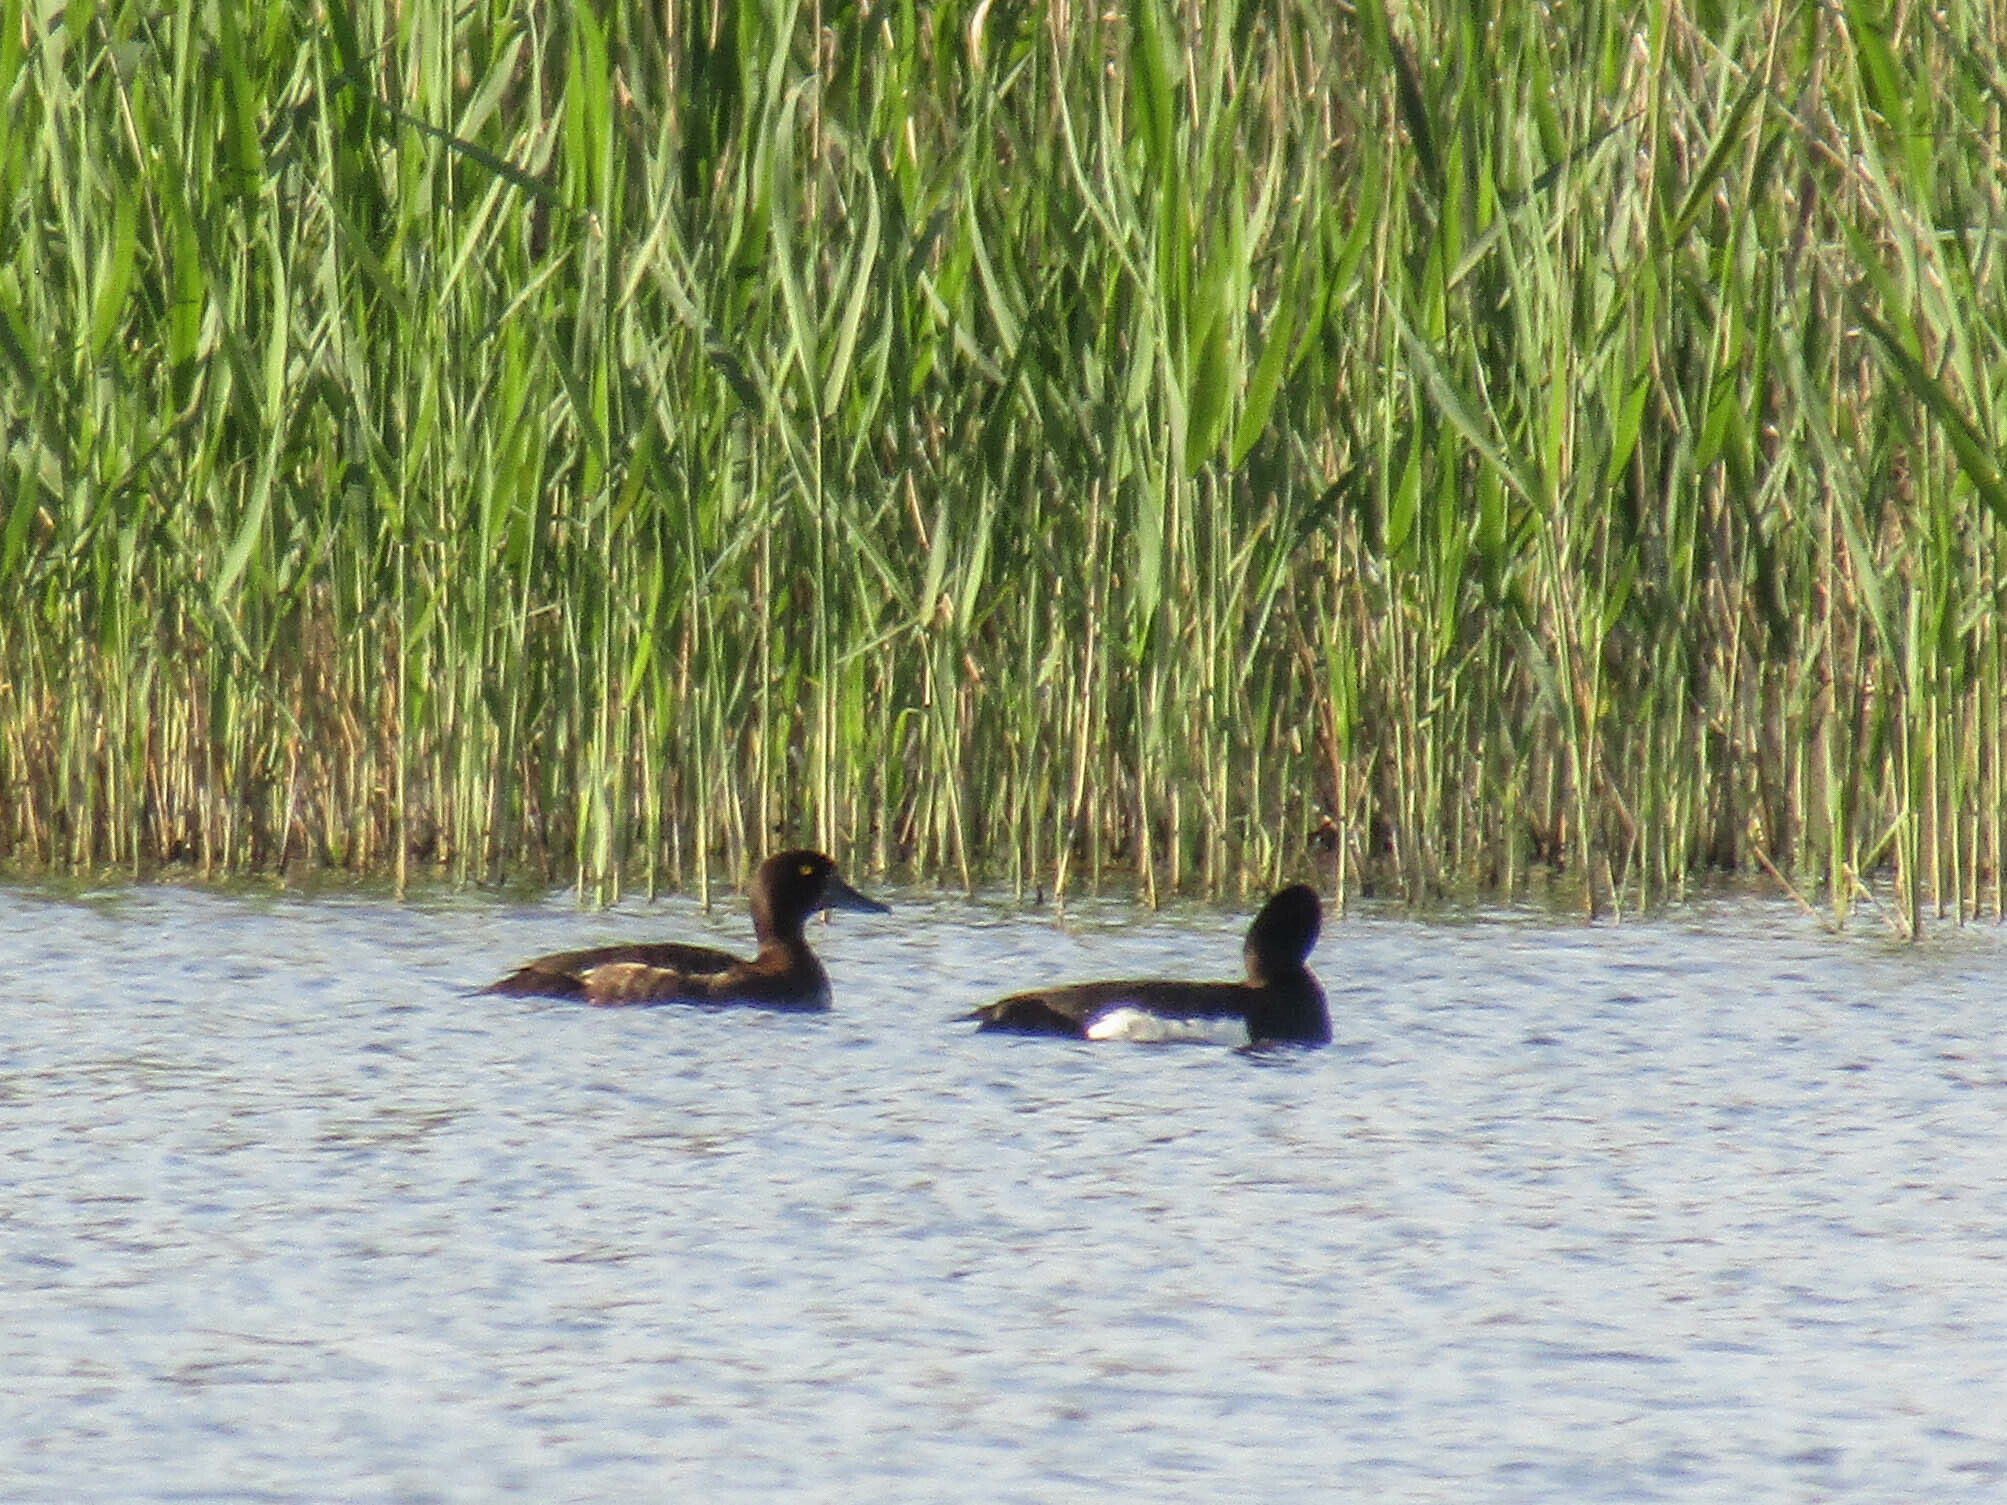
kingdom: Animalia
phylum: Chordata
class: Aves
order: Anseriformes
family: Anatidae
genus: Aythya
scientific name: Aythya fuligula
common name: Tufted duck
